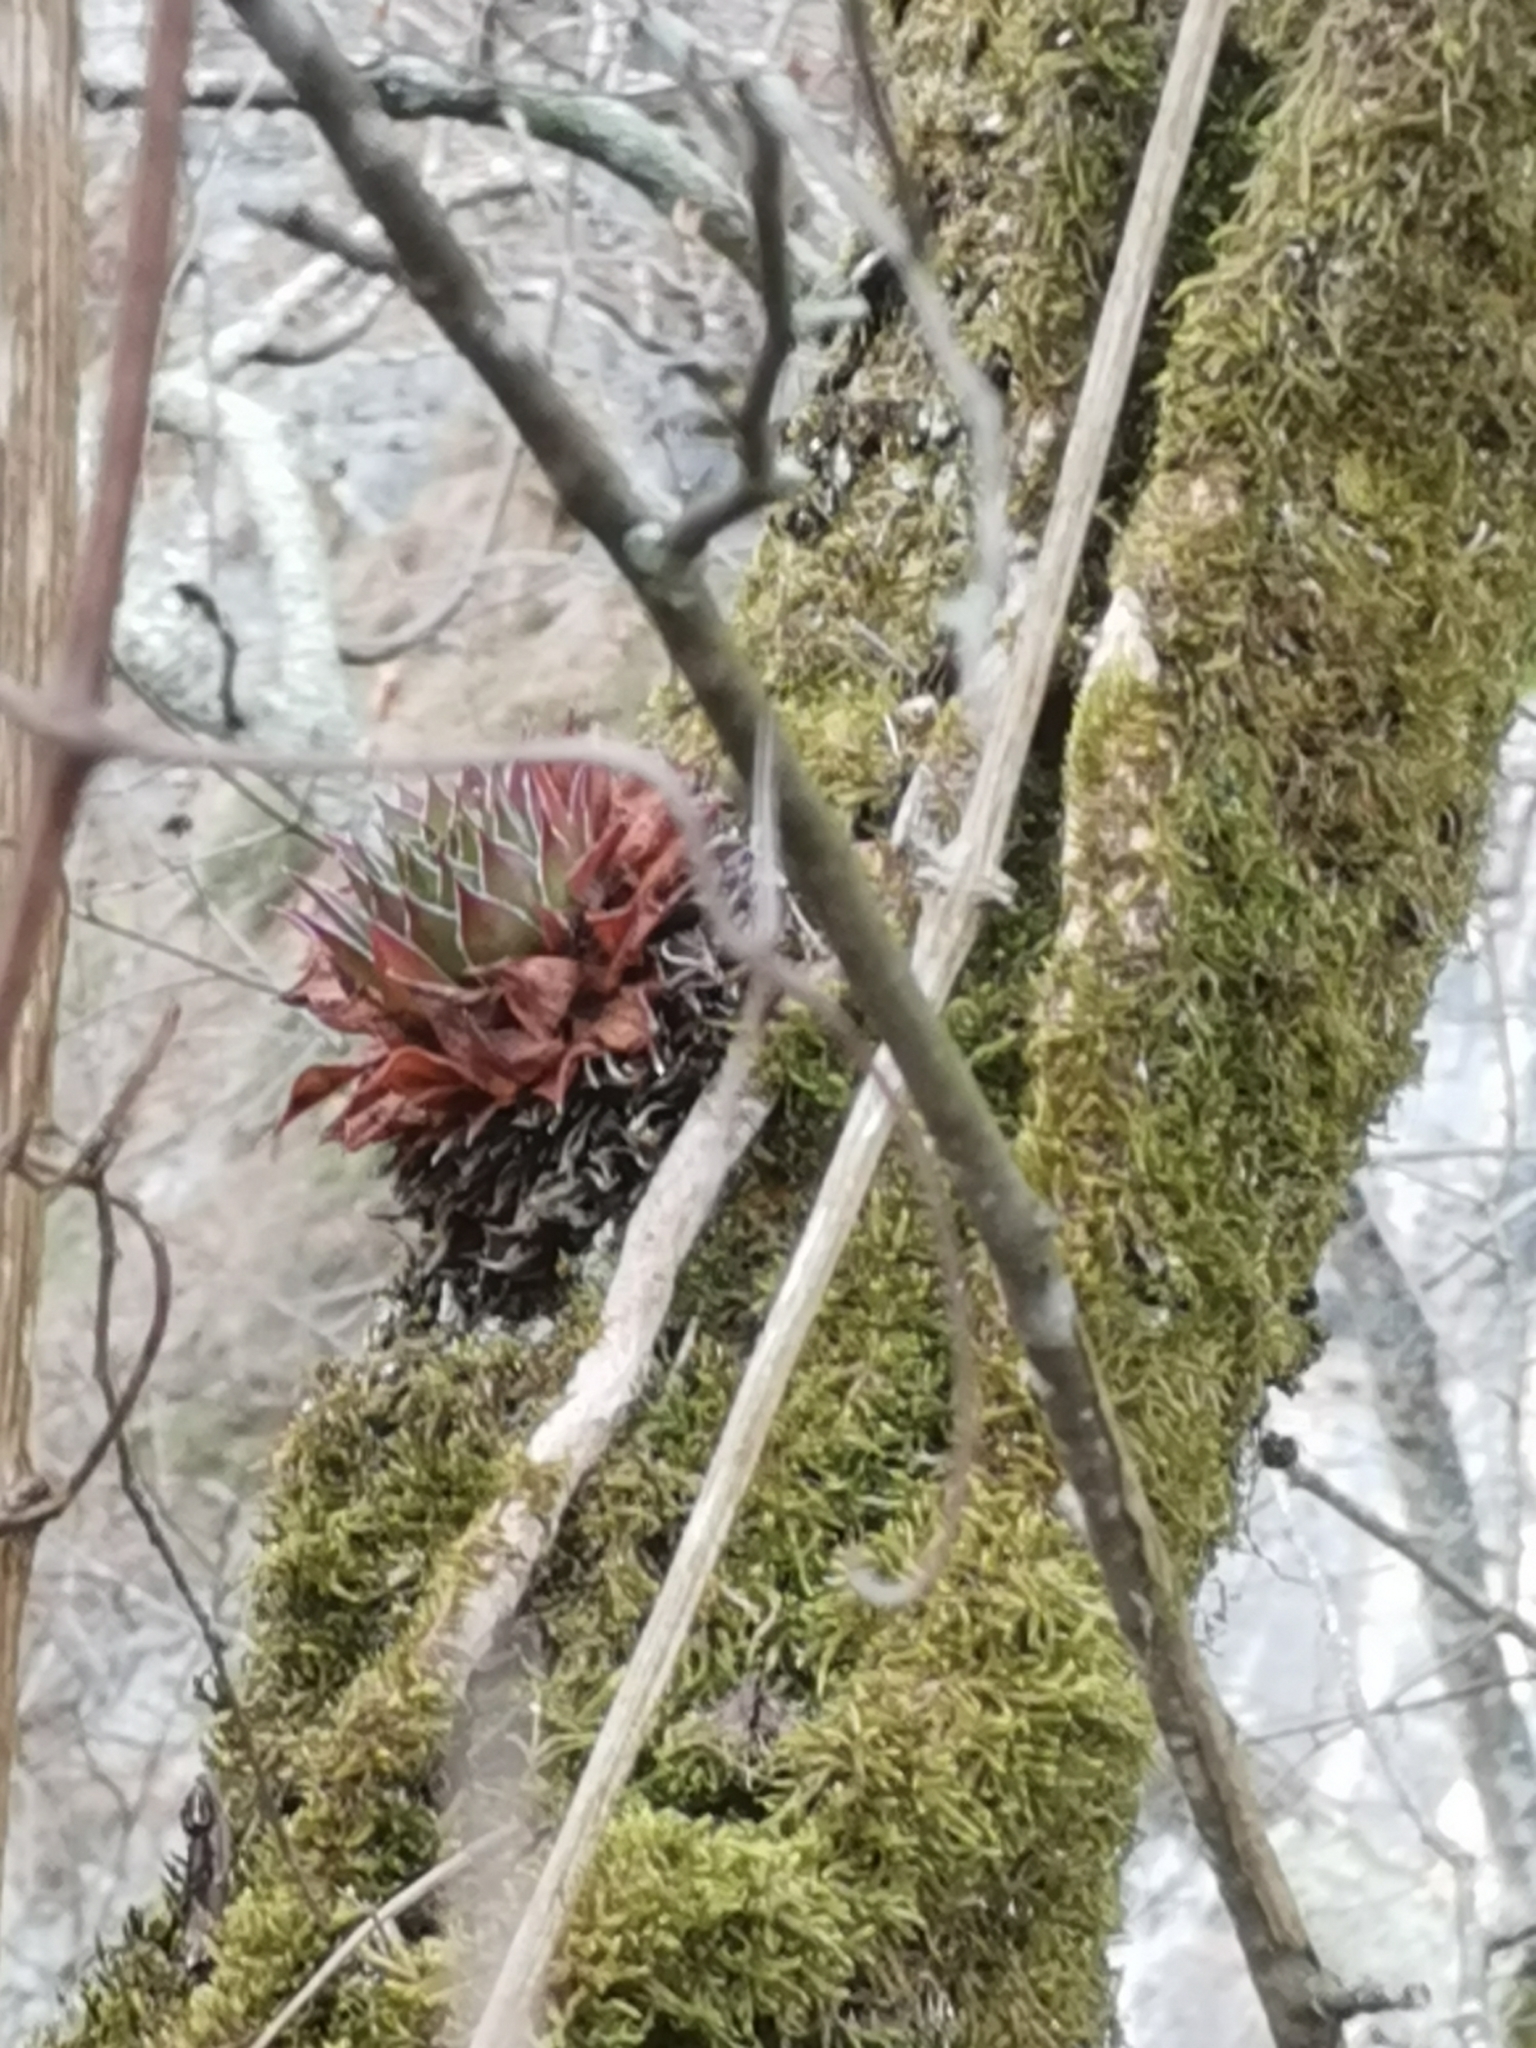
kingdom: Plantae
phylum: Tracheophyta
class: Magnoliopsida
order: Saxifragales
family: Crassulaceae
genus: Sempervivum
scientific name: Sempervivum tectorum
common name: House-leek
